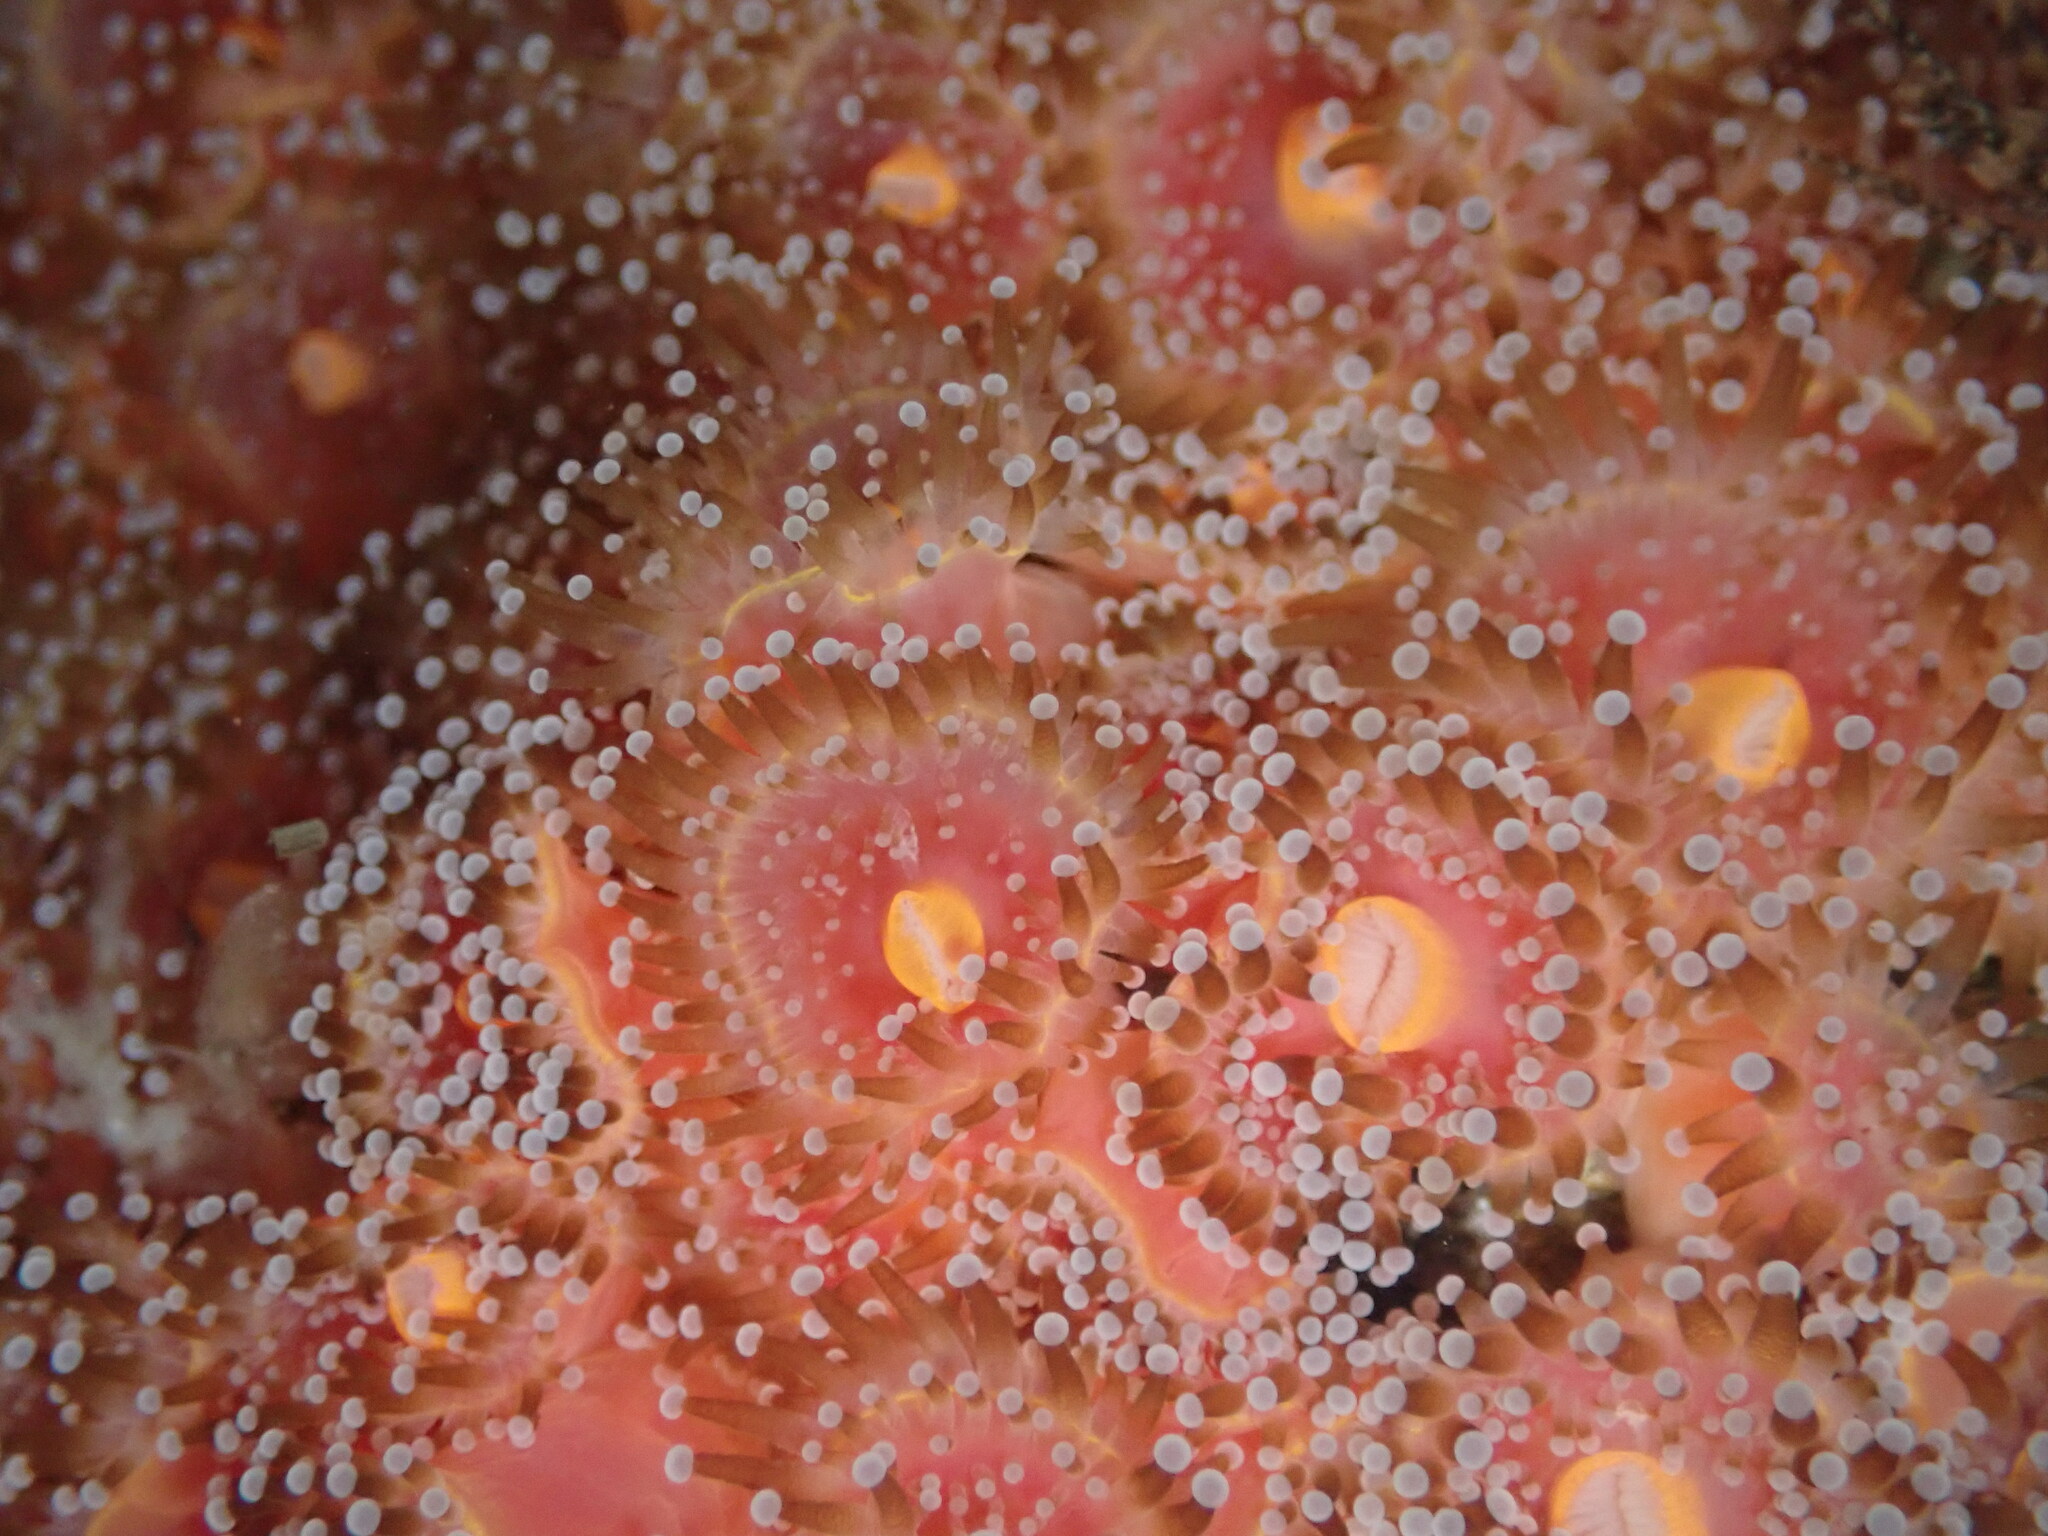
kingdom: Animalia
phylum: Cnidaria
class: Anthozoa
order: Corallimorpharia
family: Corallimorphidae
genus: Corynactis
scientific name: Corynactis californica
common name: Strawberry corallimorpharian
